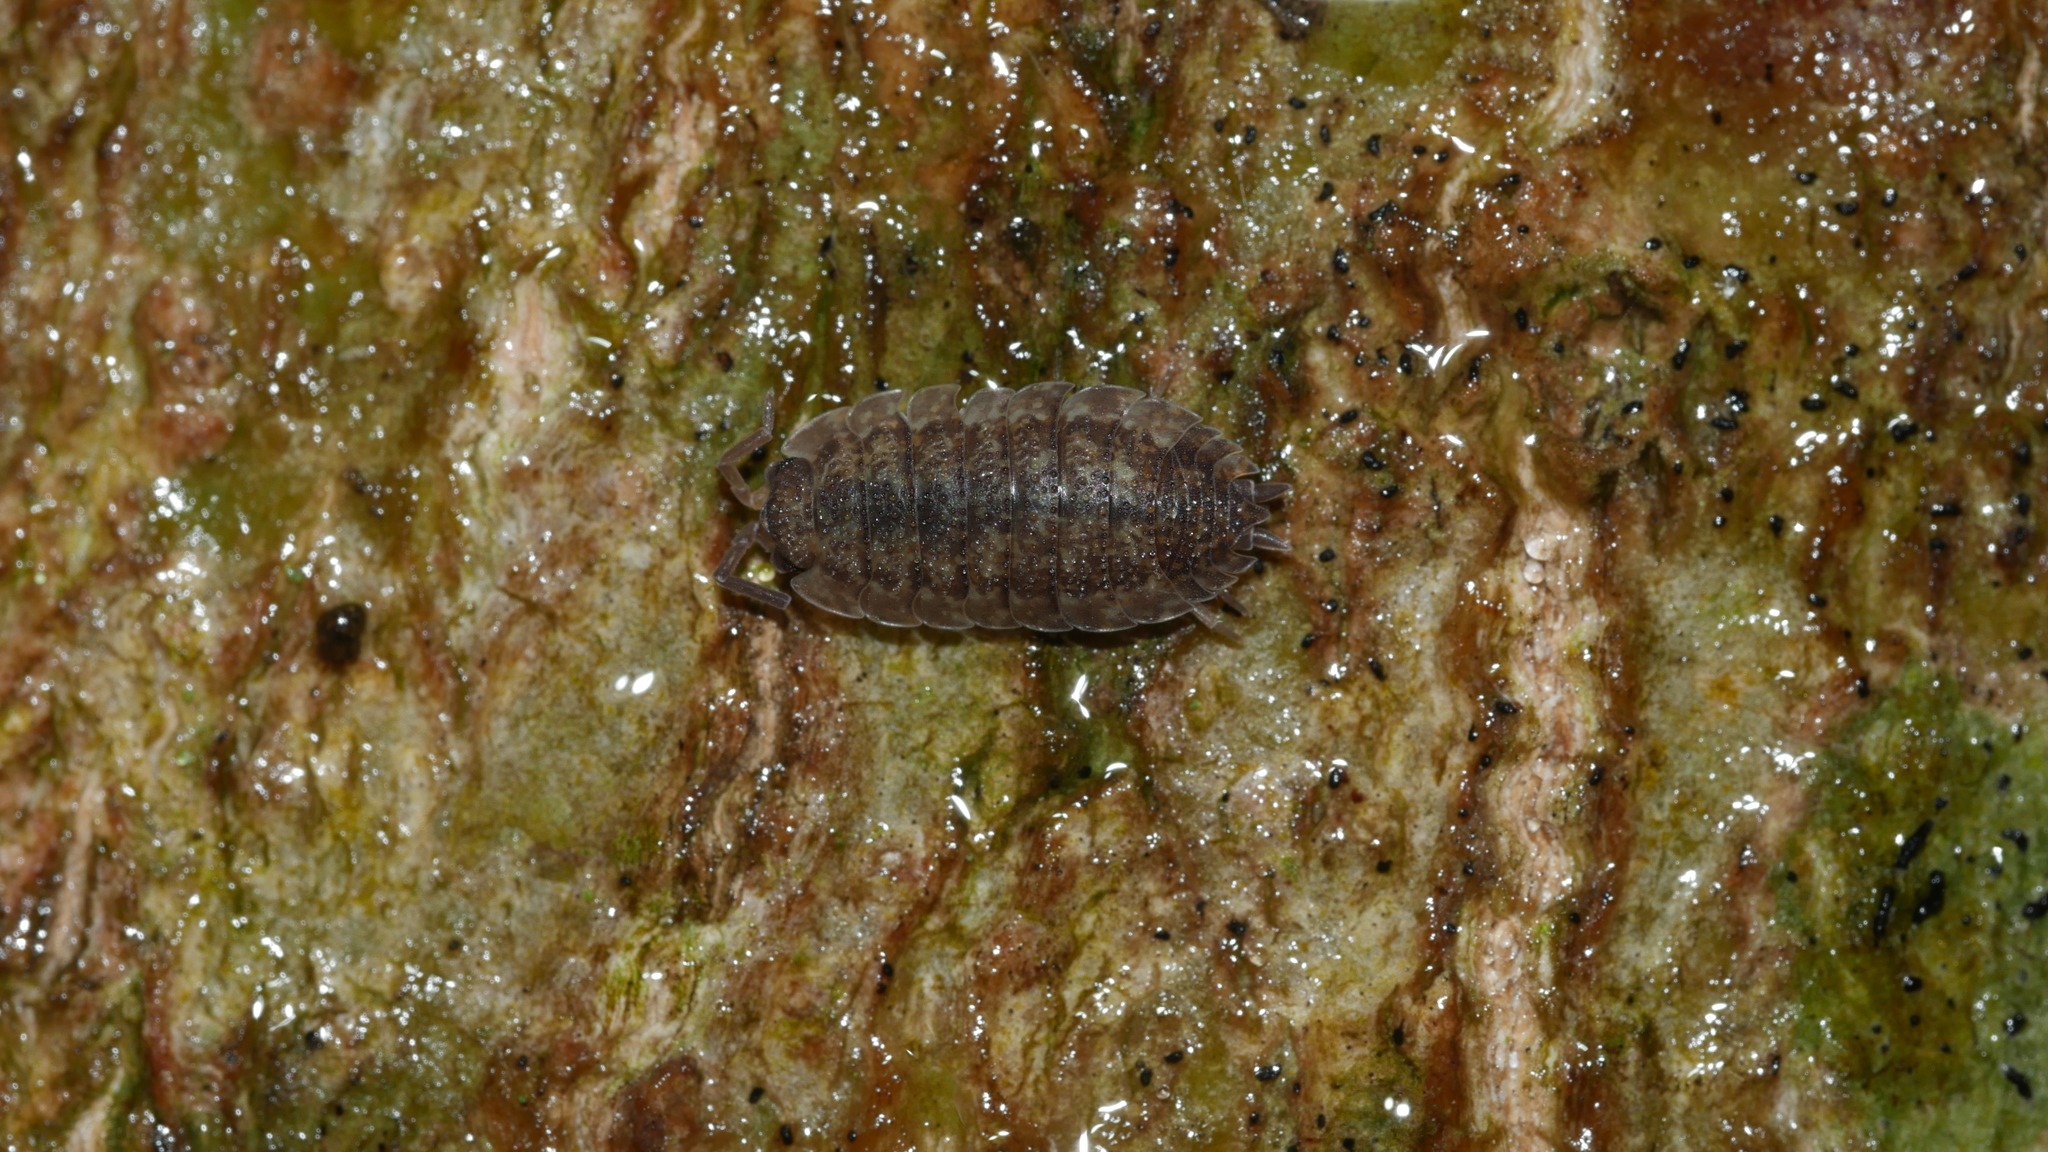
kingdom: Animalia
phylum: Arthropoda
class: Malacostraca
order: Isopoda
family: Porcellionidae
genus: Porcellio
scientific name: Porcellio scaber
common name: Common rough woodlouse
